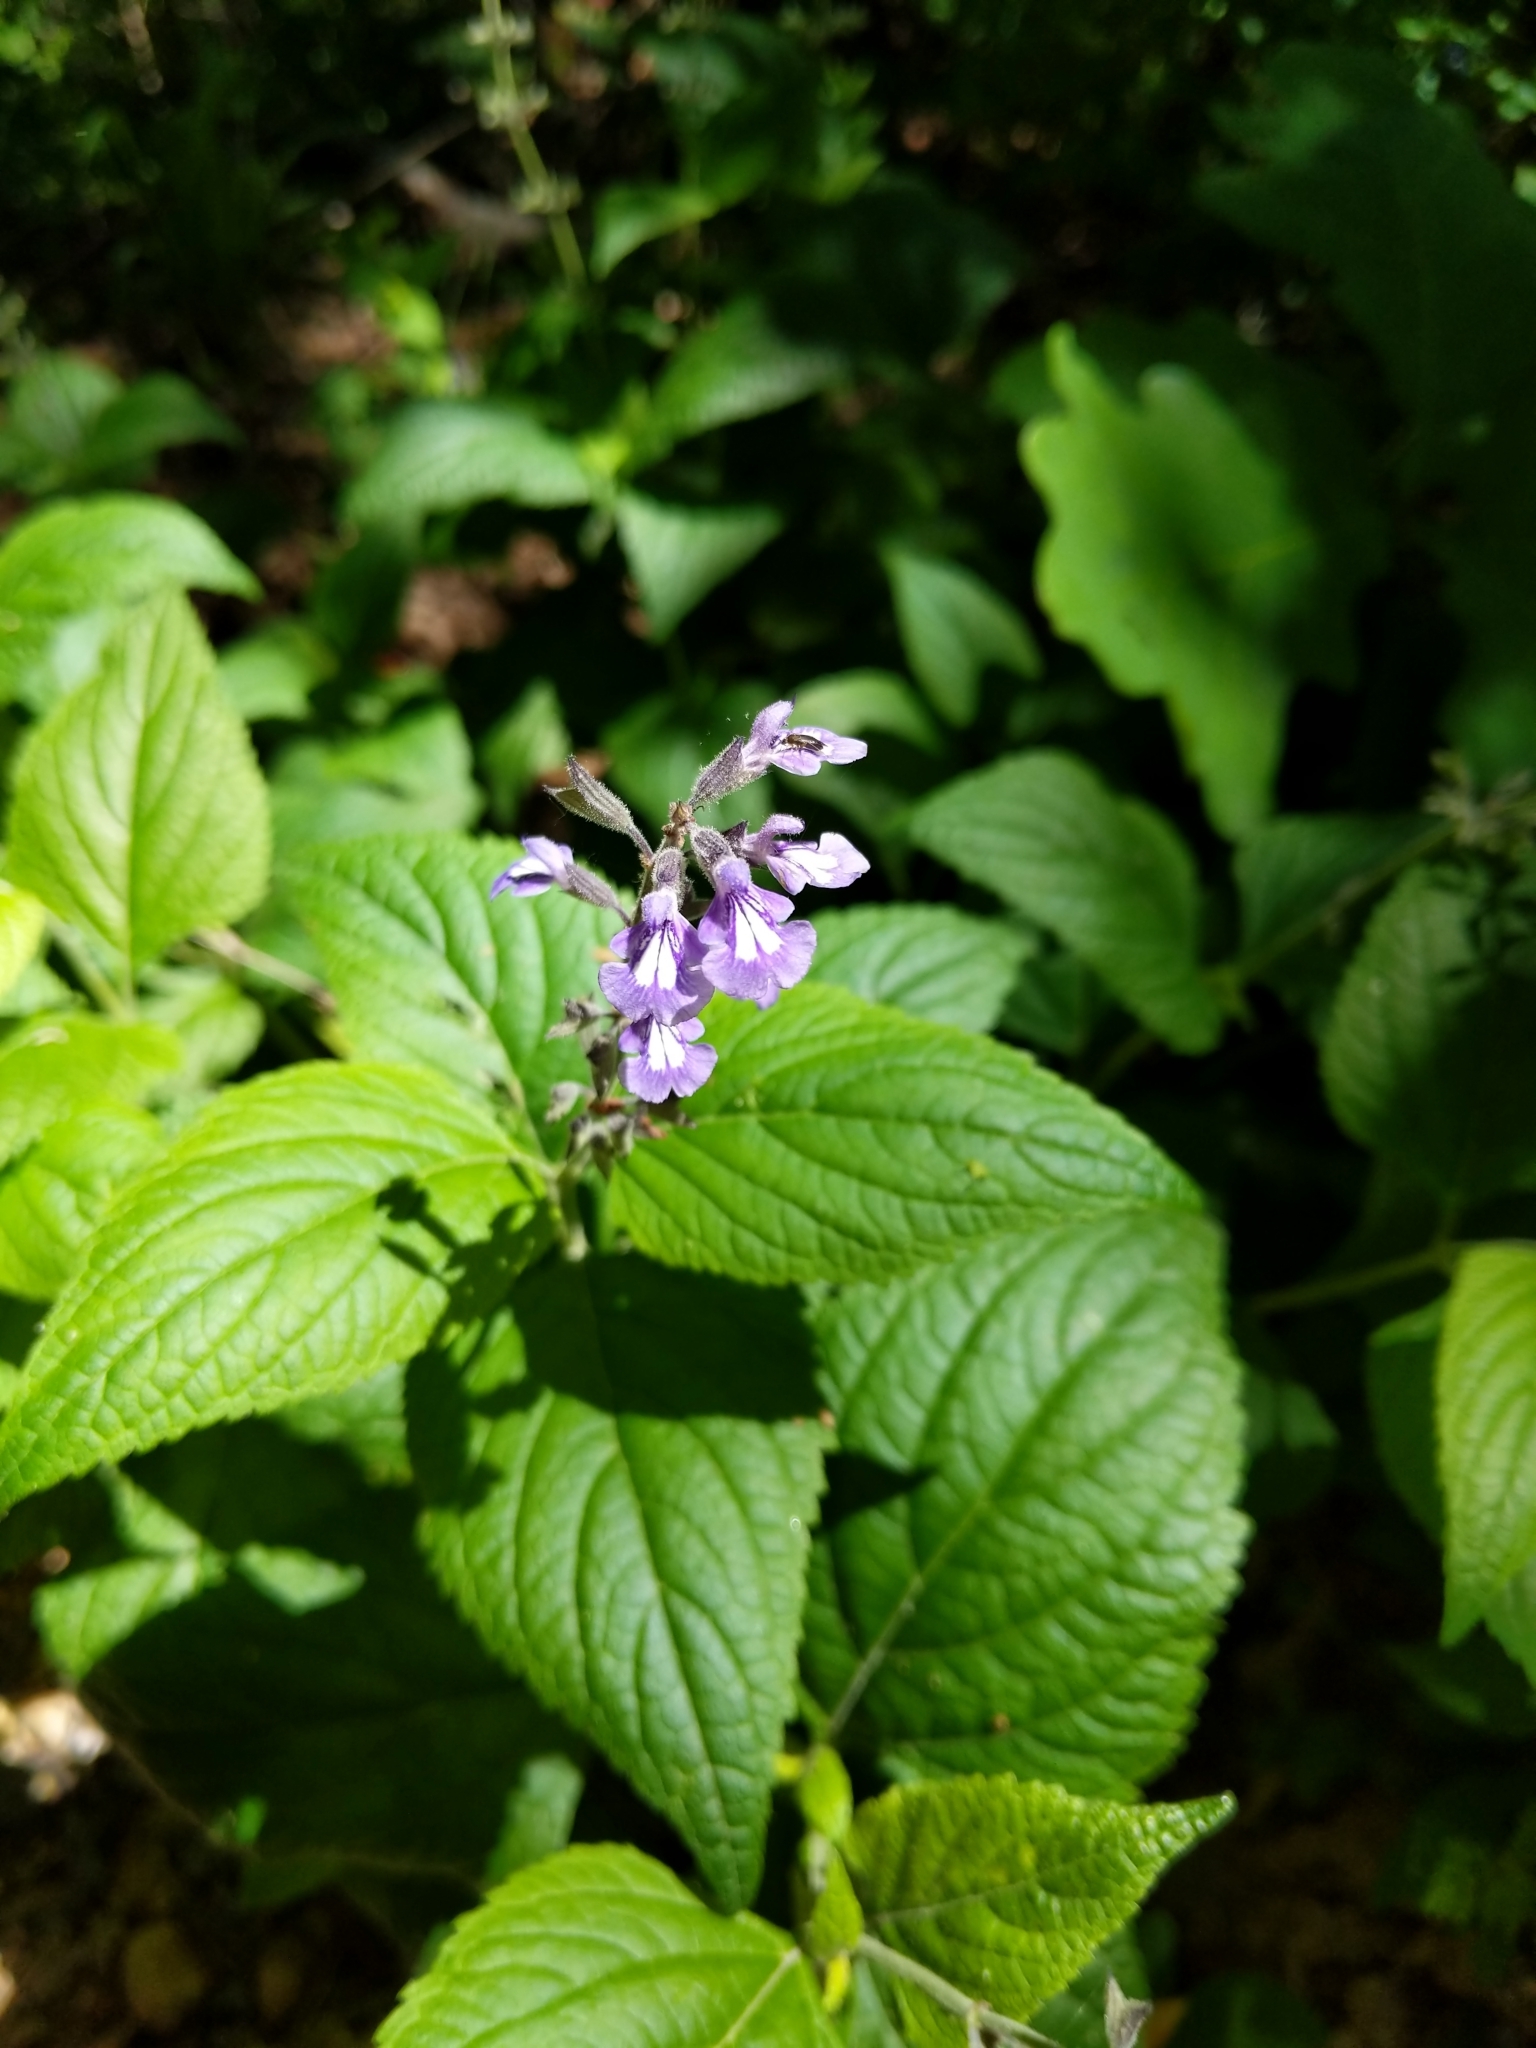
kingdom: Plantae
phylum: Tracheophyta
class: Magnoliopsida
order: Lamiales
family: Lamiaceae
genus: Salvia
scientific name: Salvia urticifolia
